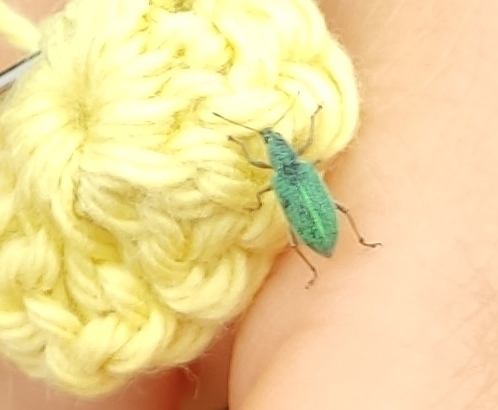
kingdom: Animalia
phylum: Arthropoda
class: Insecta
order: Coleoptera
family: Curculionidae
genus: Polydrusus
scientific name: Polydrusus formosus
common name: Weevil
